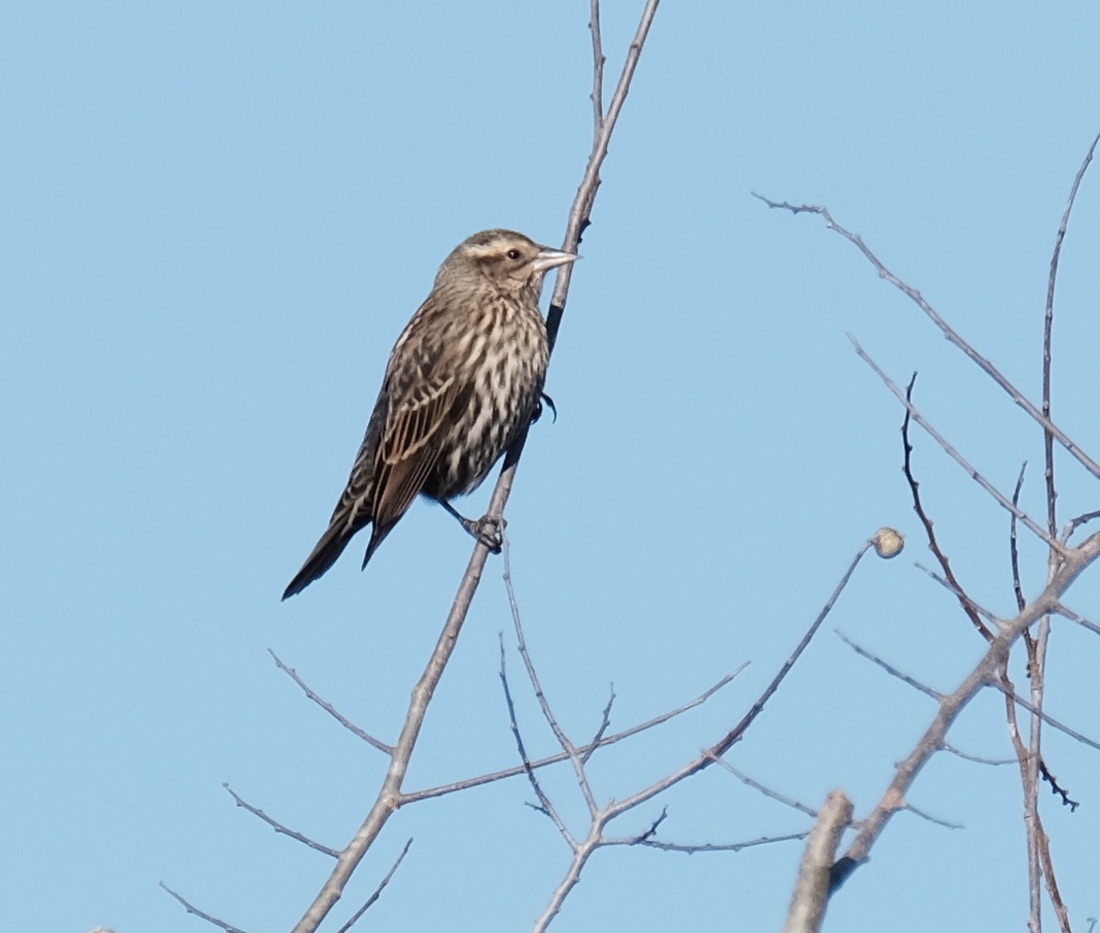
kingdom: Animalia
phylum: Chordata
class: Aves
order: Passeriformes
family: Icteridae
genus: Agelaius
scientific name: Agelaius phoeniceus
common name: Red-winged blackbird
